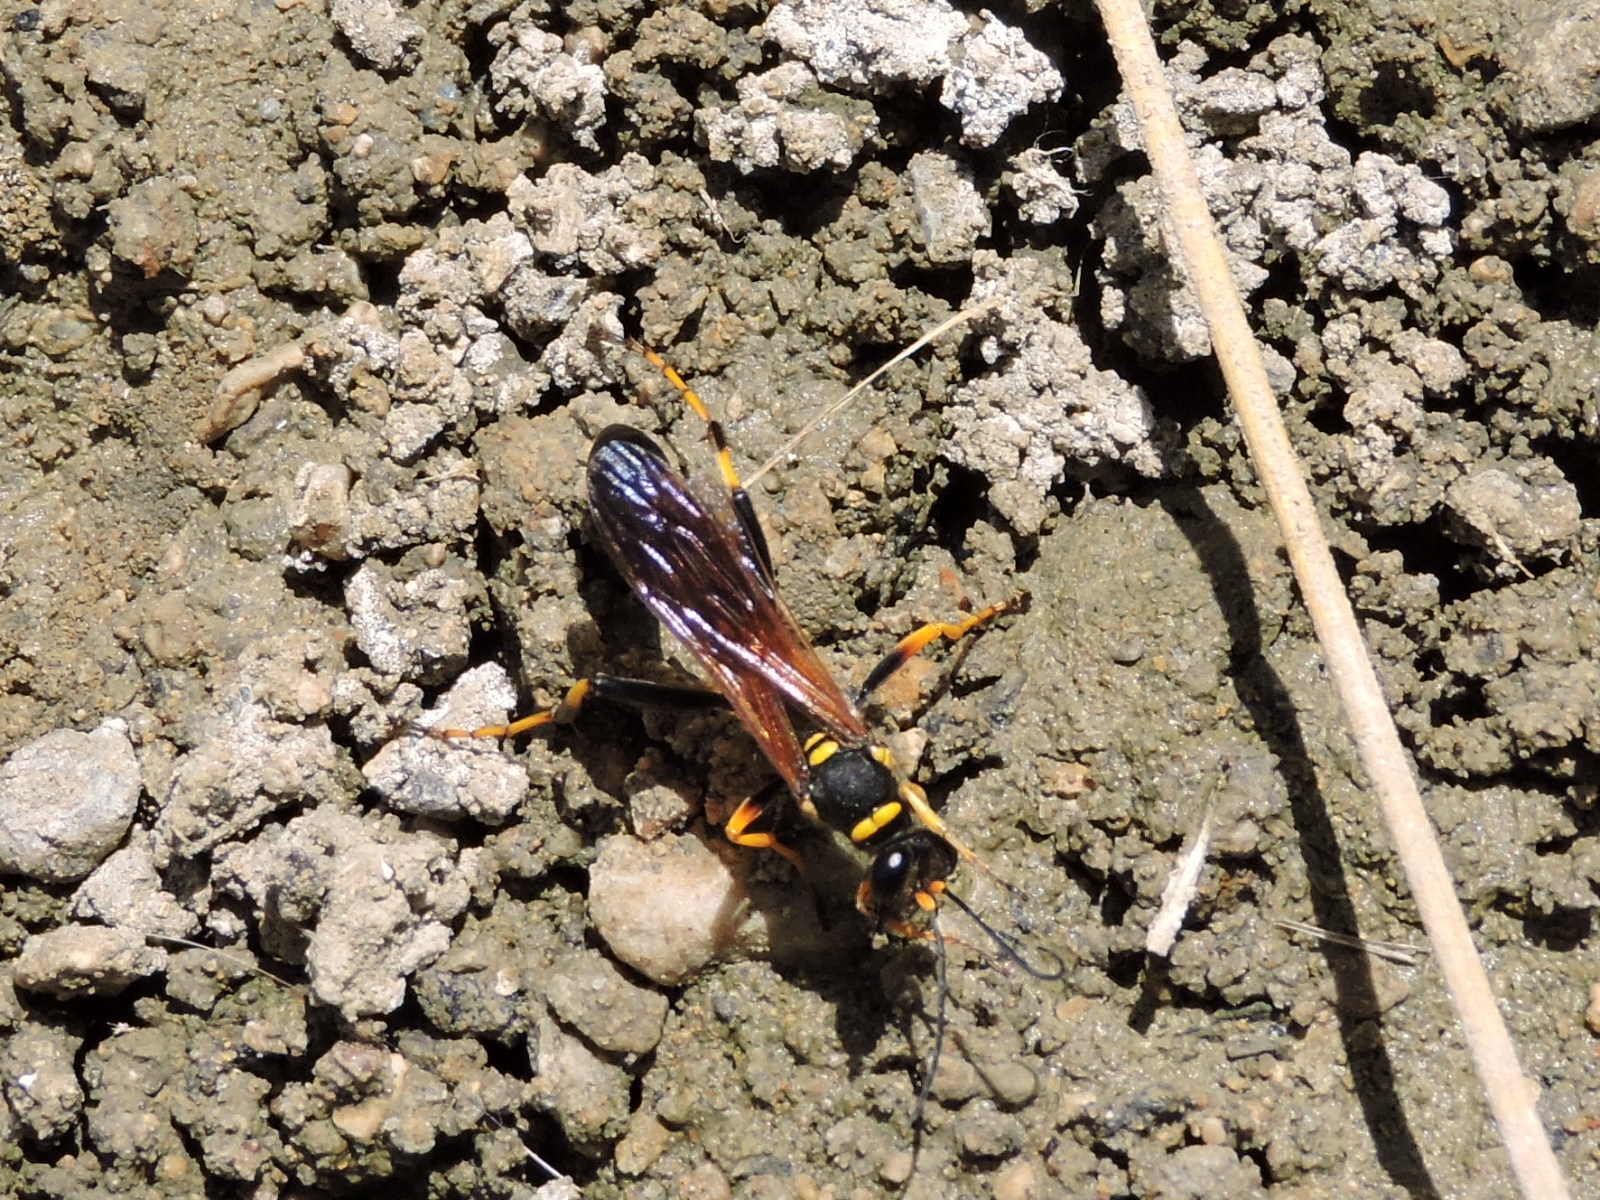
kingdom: Animalia
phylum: Arthropoda
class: Insecta
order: Hymenoptera
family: Sphecidae
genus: Sceliphron
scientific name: Sceliphron caementarium
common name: Mud dauber
